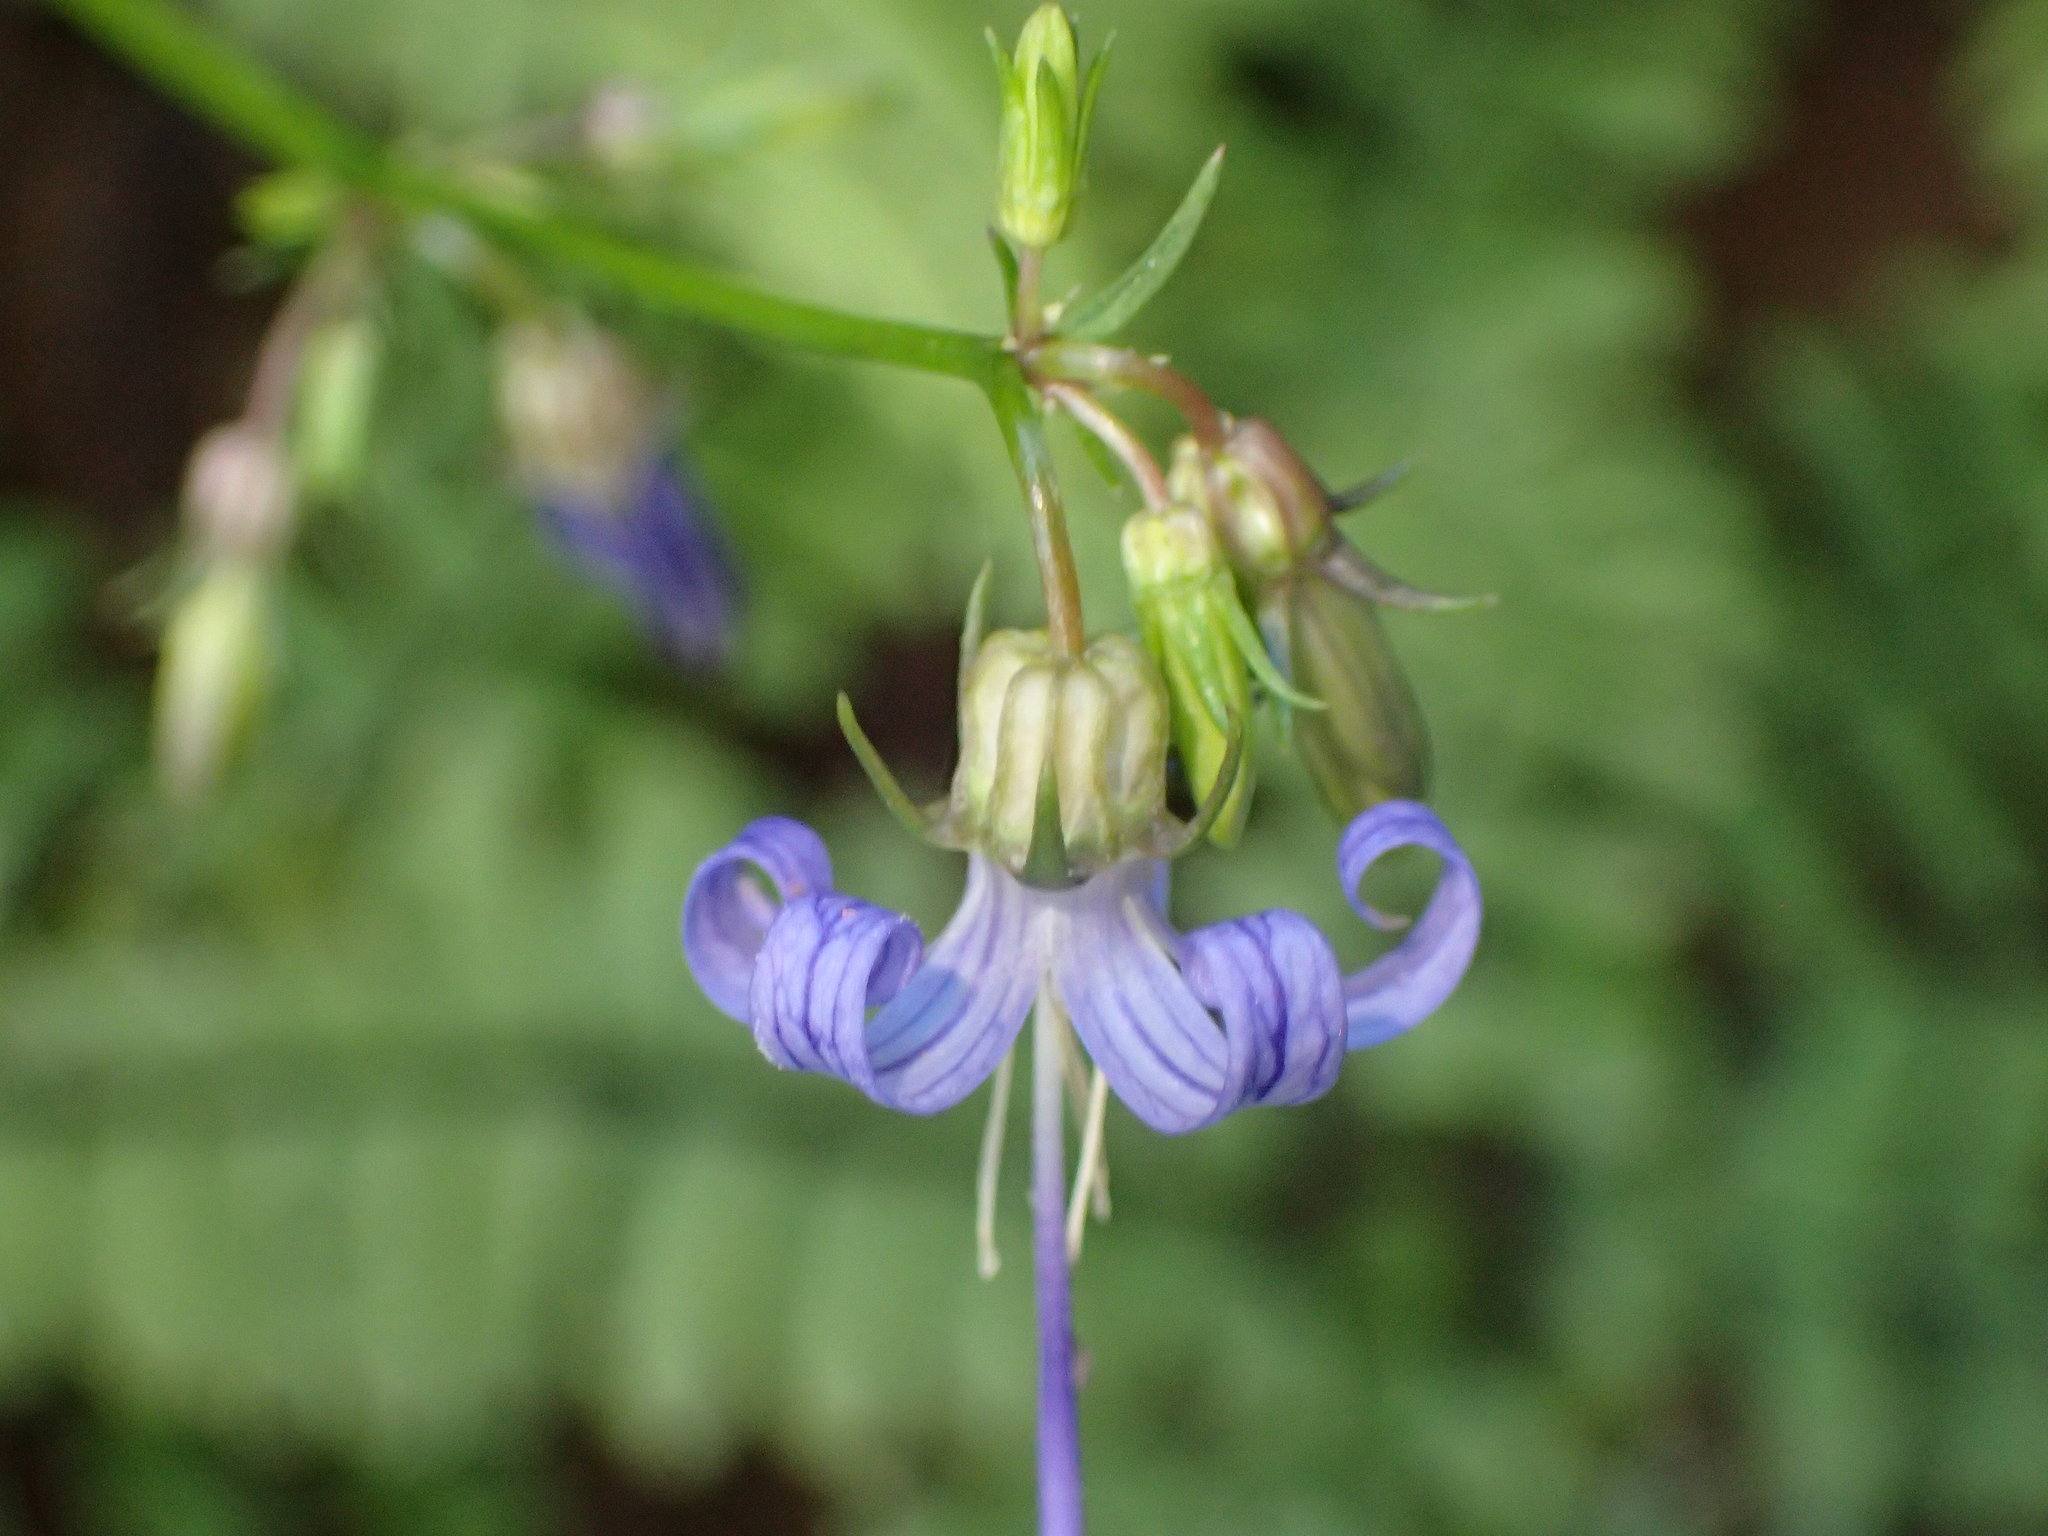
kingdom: Plantae
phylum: Tracheophyta
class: Magnoliopsida
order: Asterales
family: Campanulaceae
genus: Smithiastrum
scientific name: Smithiastrum prenanthoides
